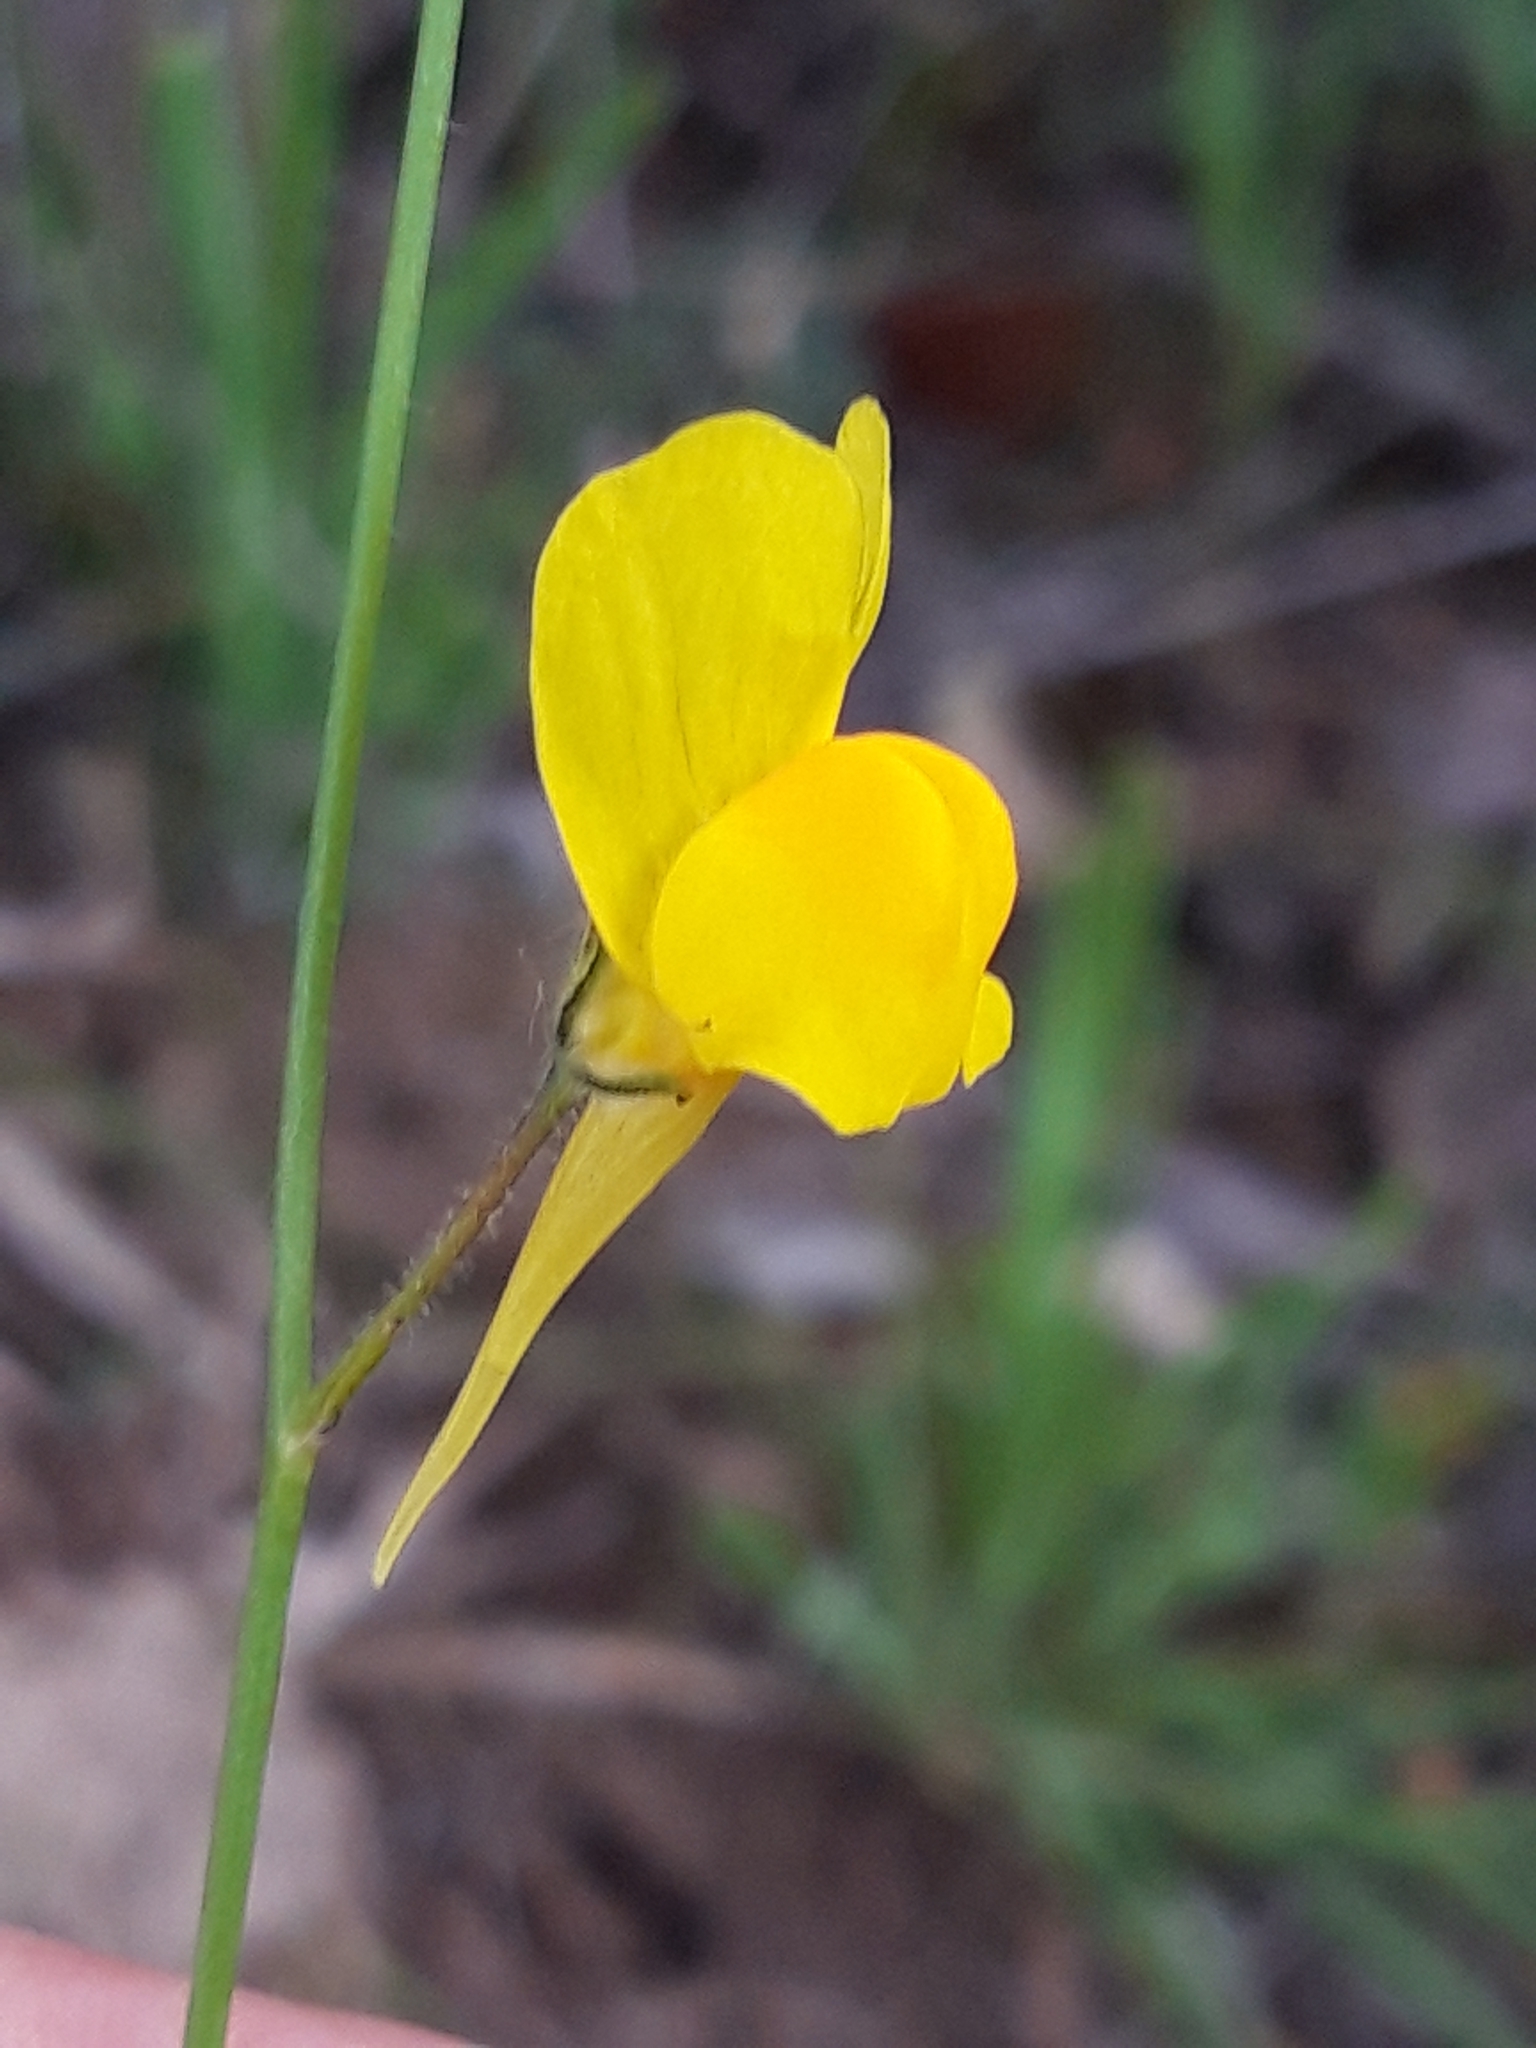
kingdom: Plantae
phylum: Tracheophyta
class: Magnoliopsida
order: Lamiales
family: Plantaginaceae
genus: Linaria
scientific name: Linaria spartea
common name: Ballast toadflax
